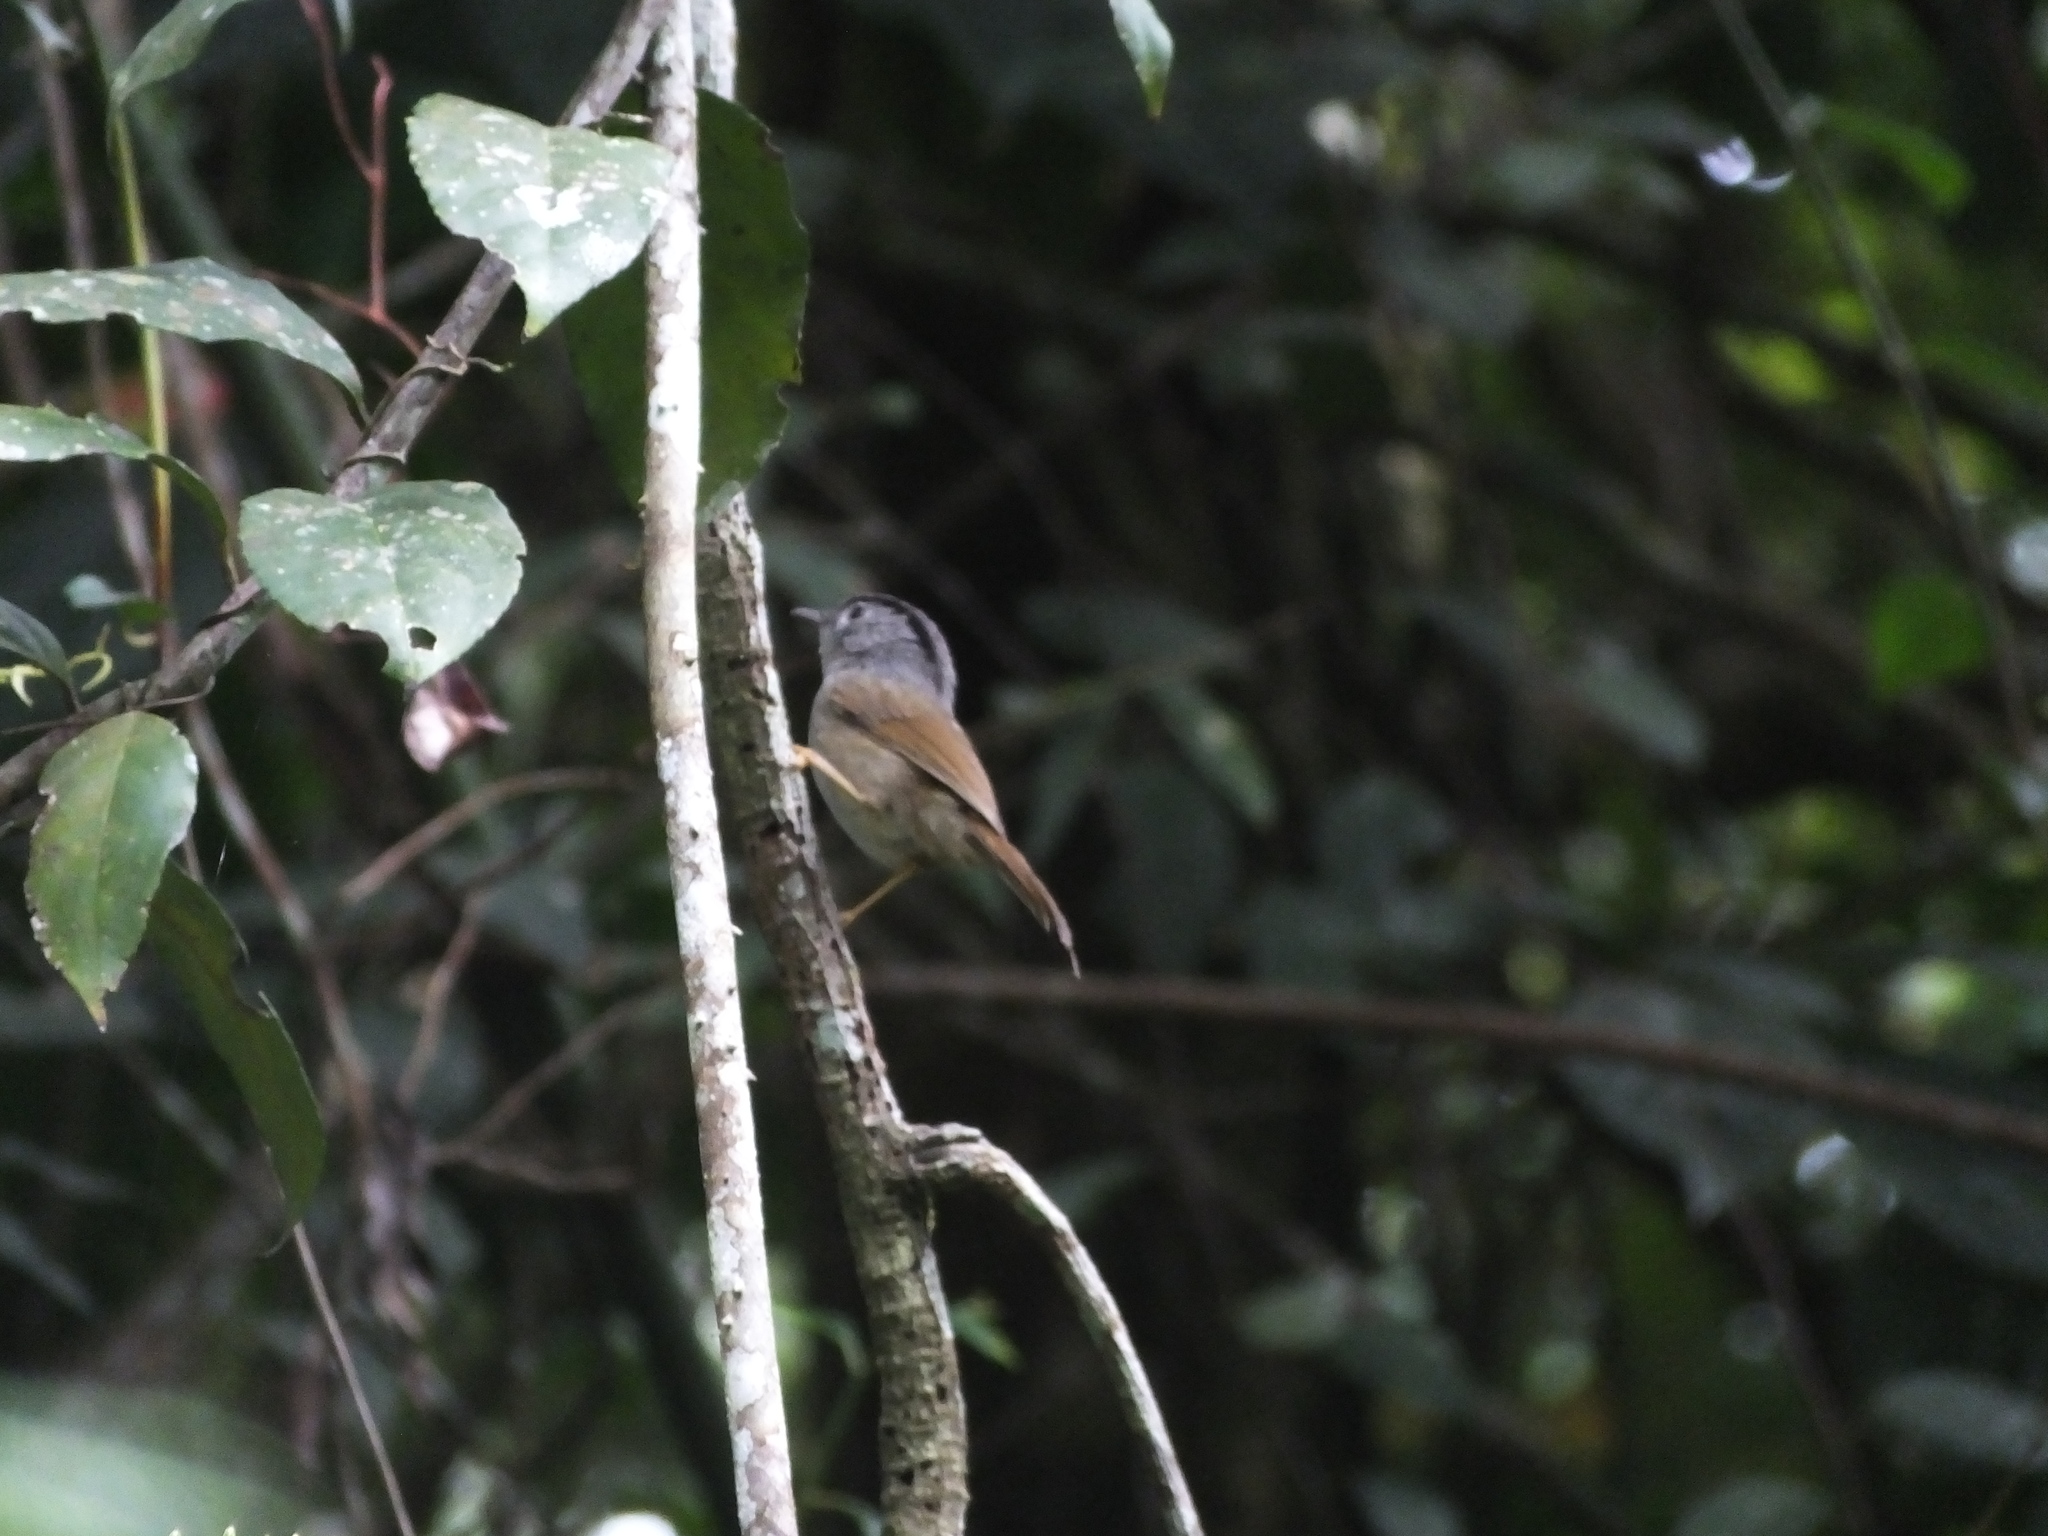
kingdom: Animalia
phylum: Chordata
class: Aves
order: Passeriformes
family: Pellorneidae
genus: Alcippe
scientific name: Alcippe peracensis
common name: Mountain fulvetta
